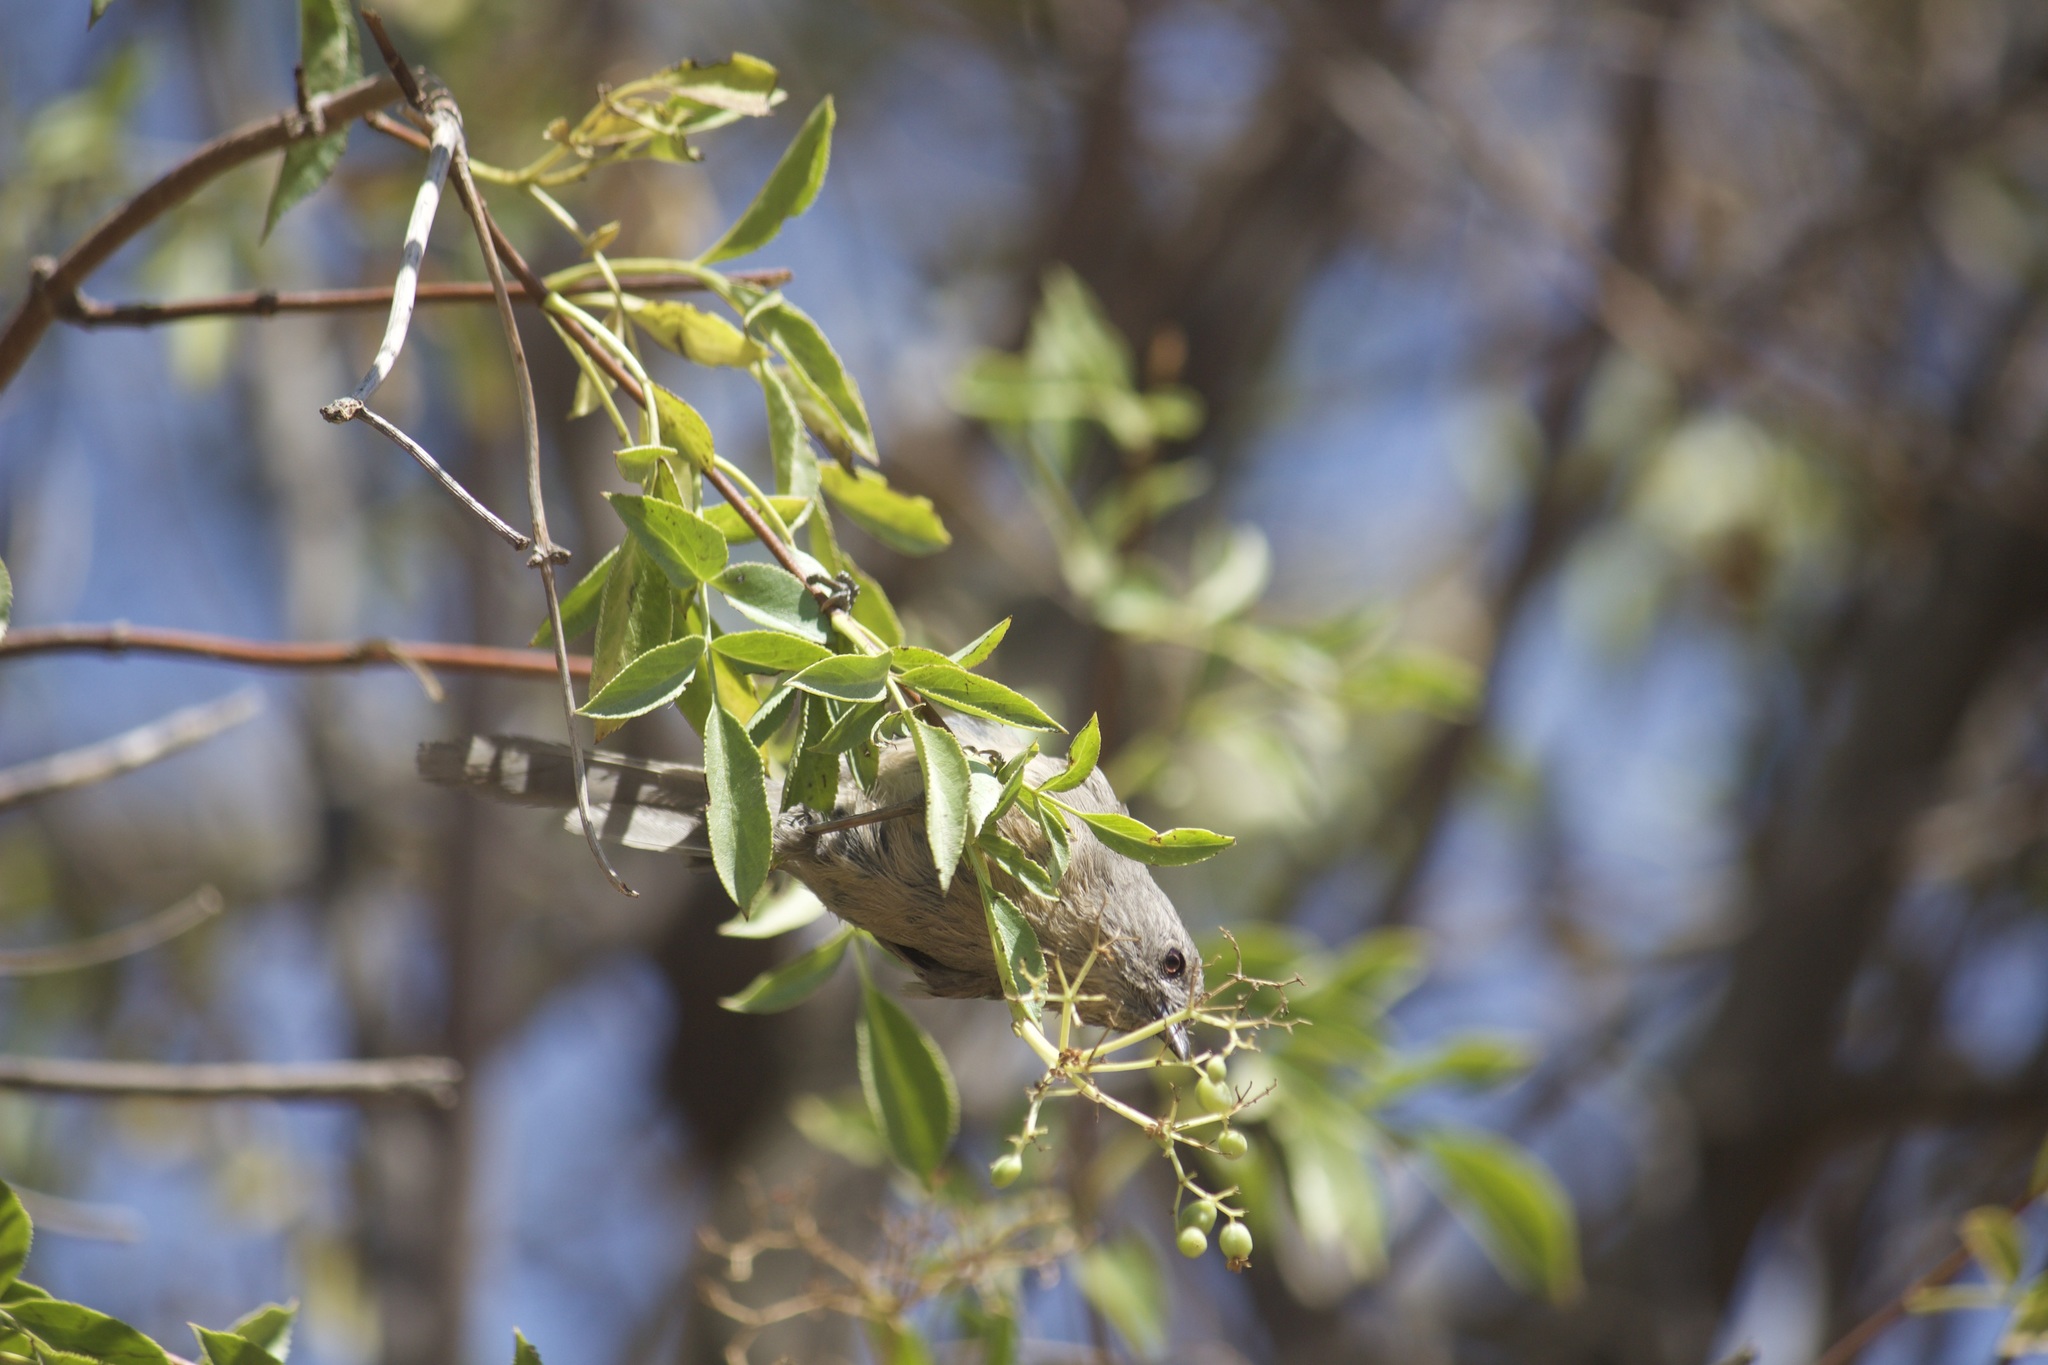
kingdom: Animalia
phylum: Chordata
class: Aves
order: Passeriformes
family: Sylviidae
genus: Chamaea
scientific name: Chamaea fasciata
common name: Wrentit
